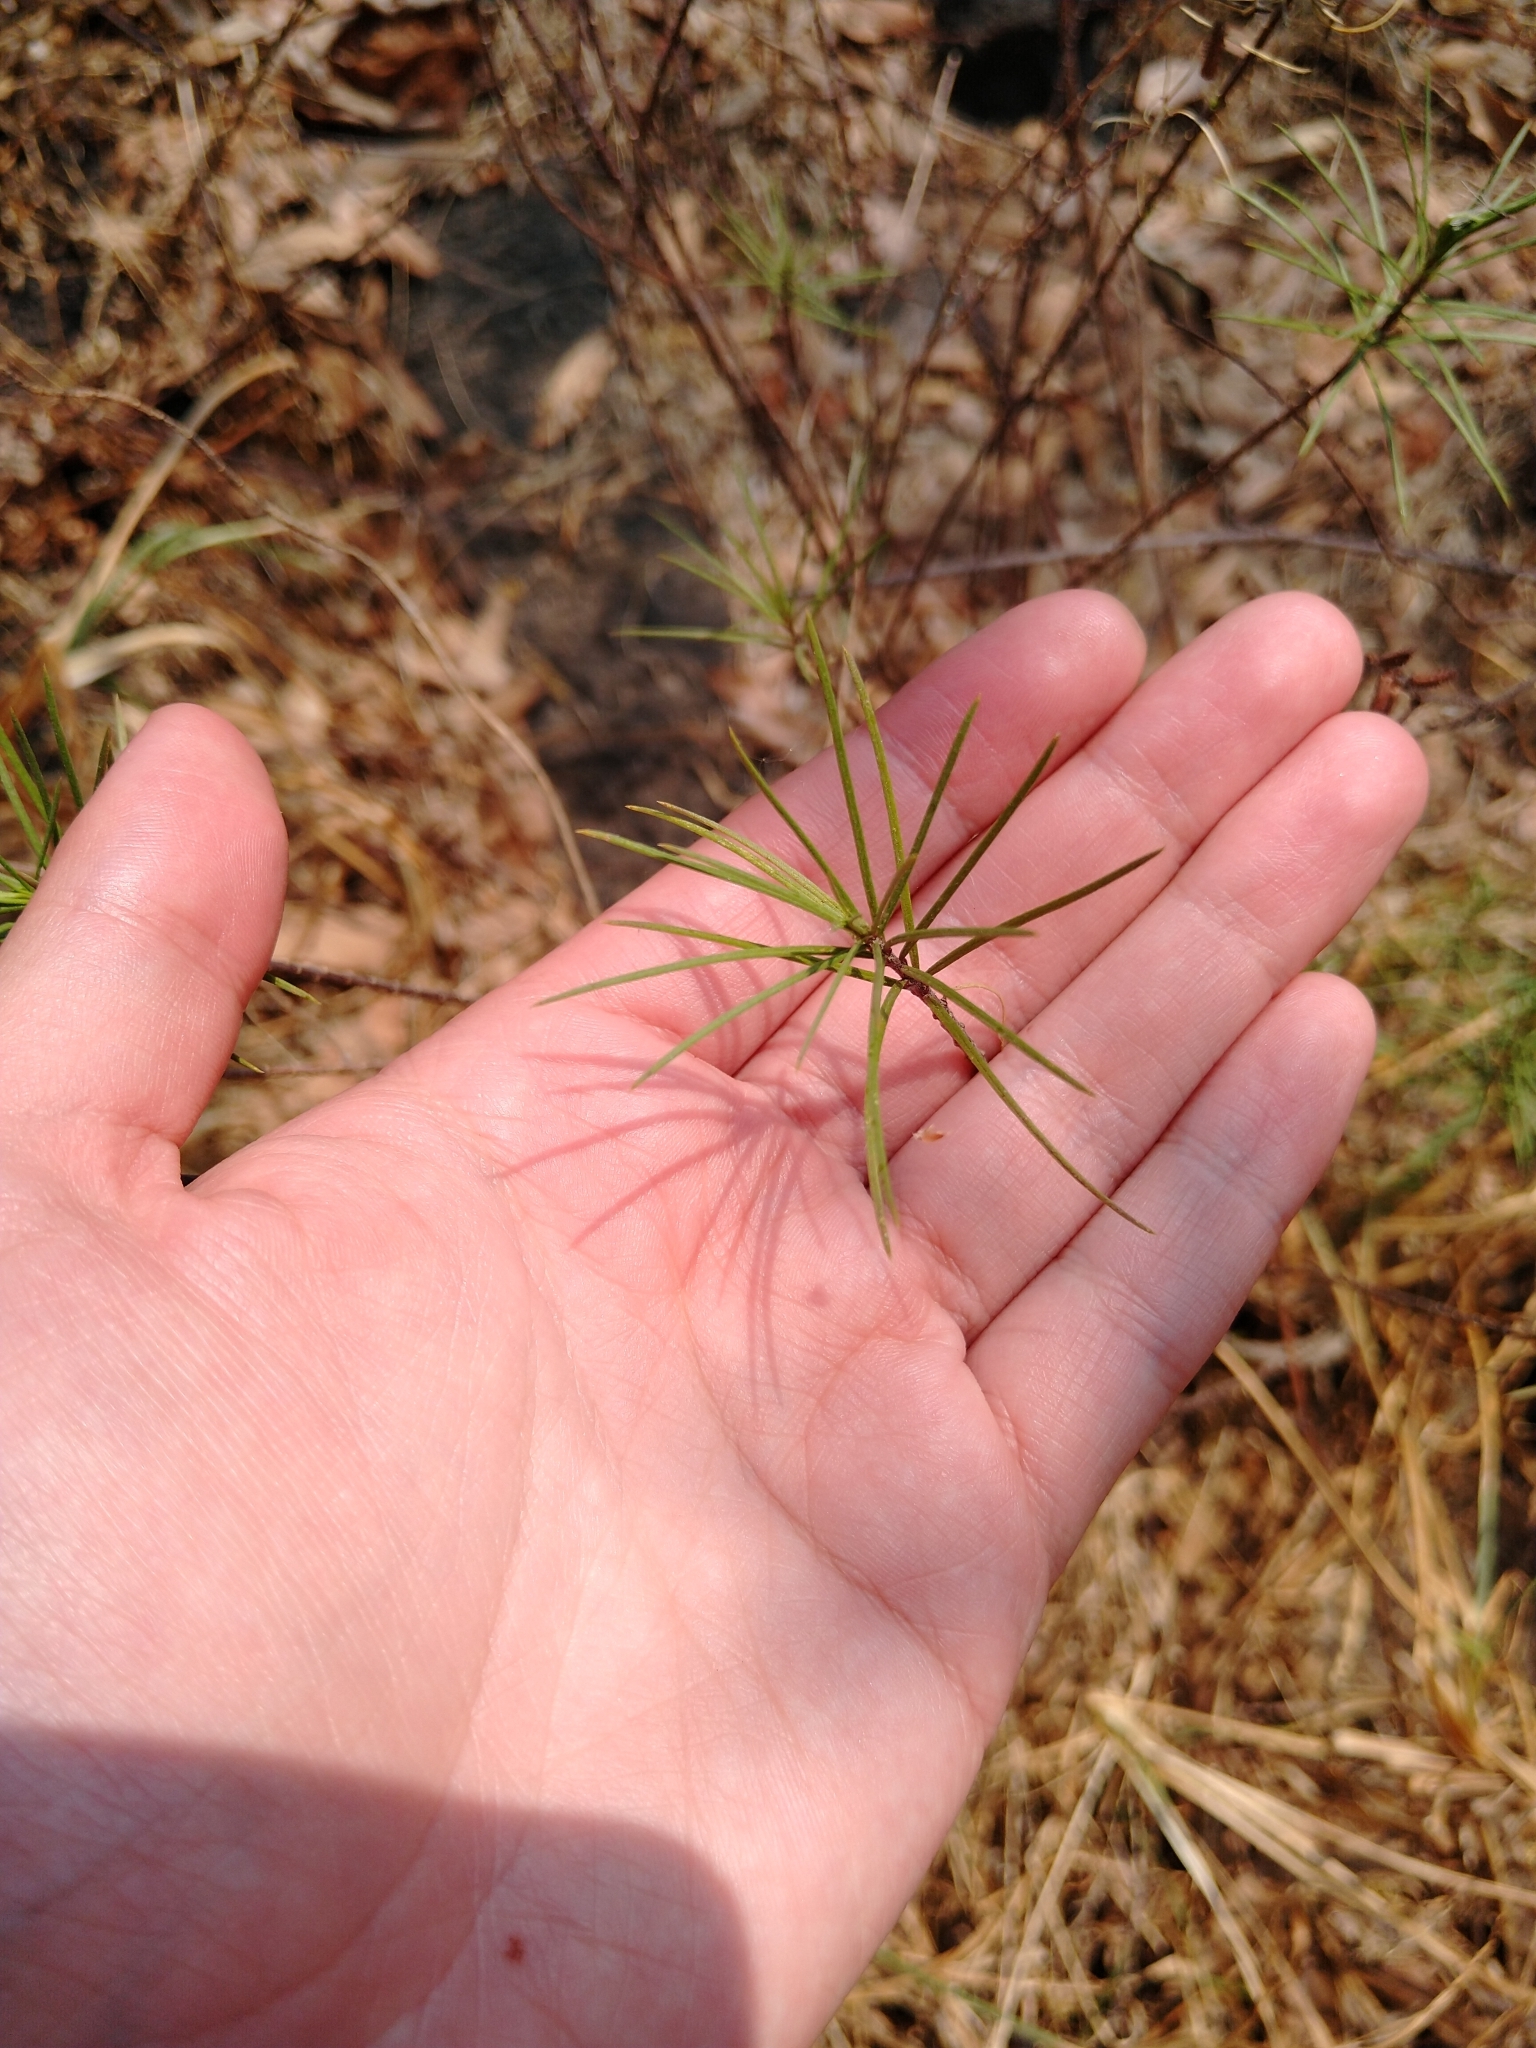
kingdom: Plantae
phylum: Tracheophyta
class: Magnoliopsida
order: Gentianales
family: Apocynaceae
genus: Asclepias
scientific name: Asclepias linaria
